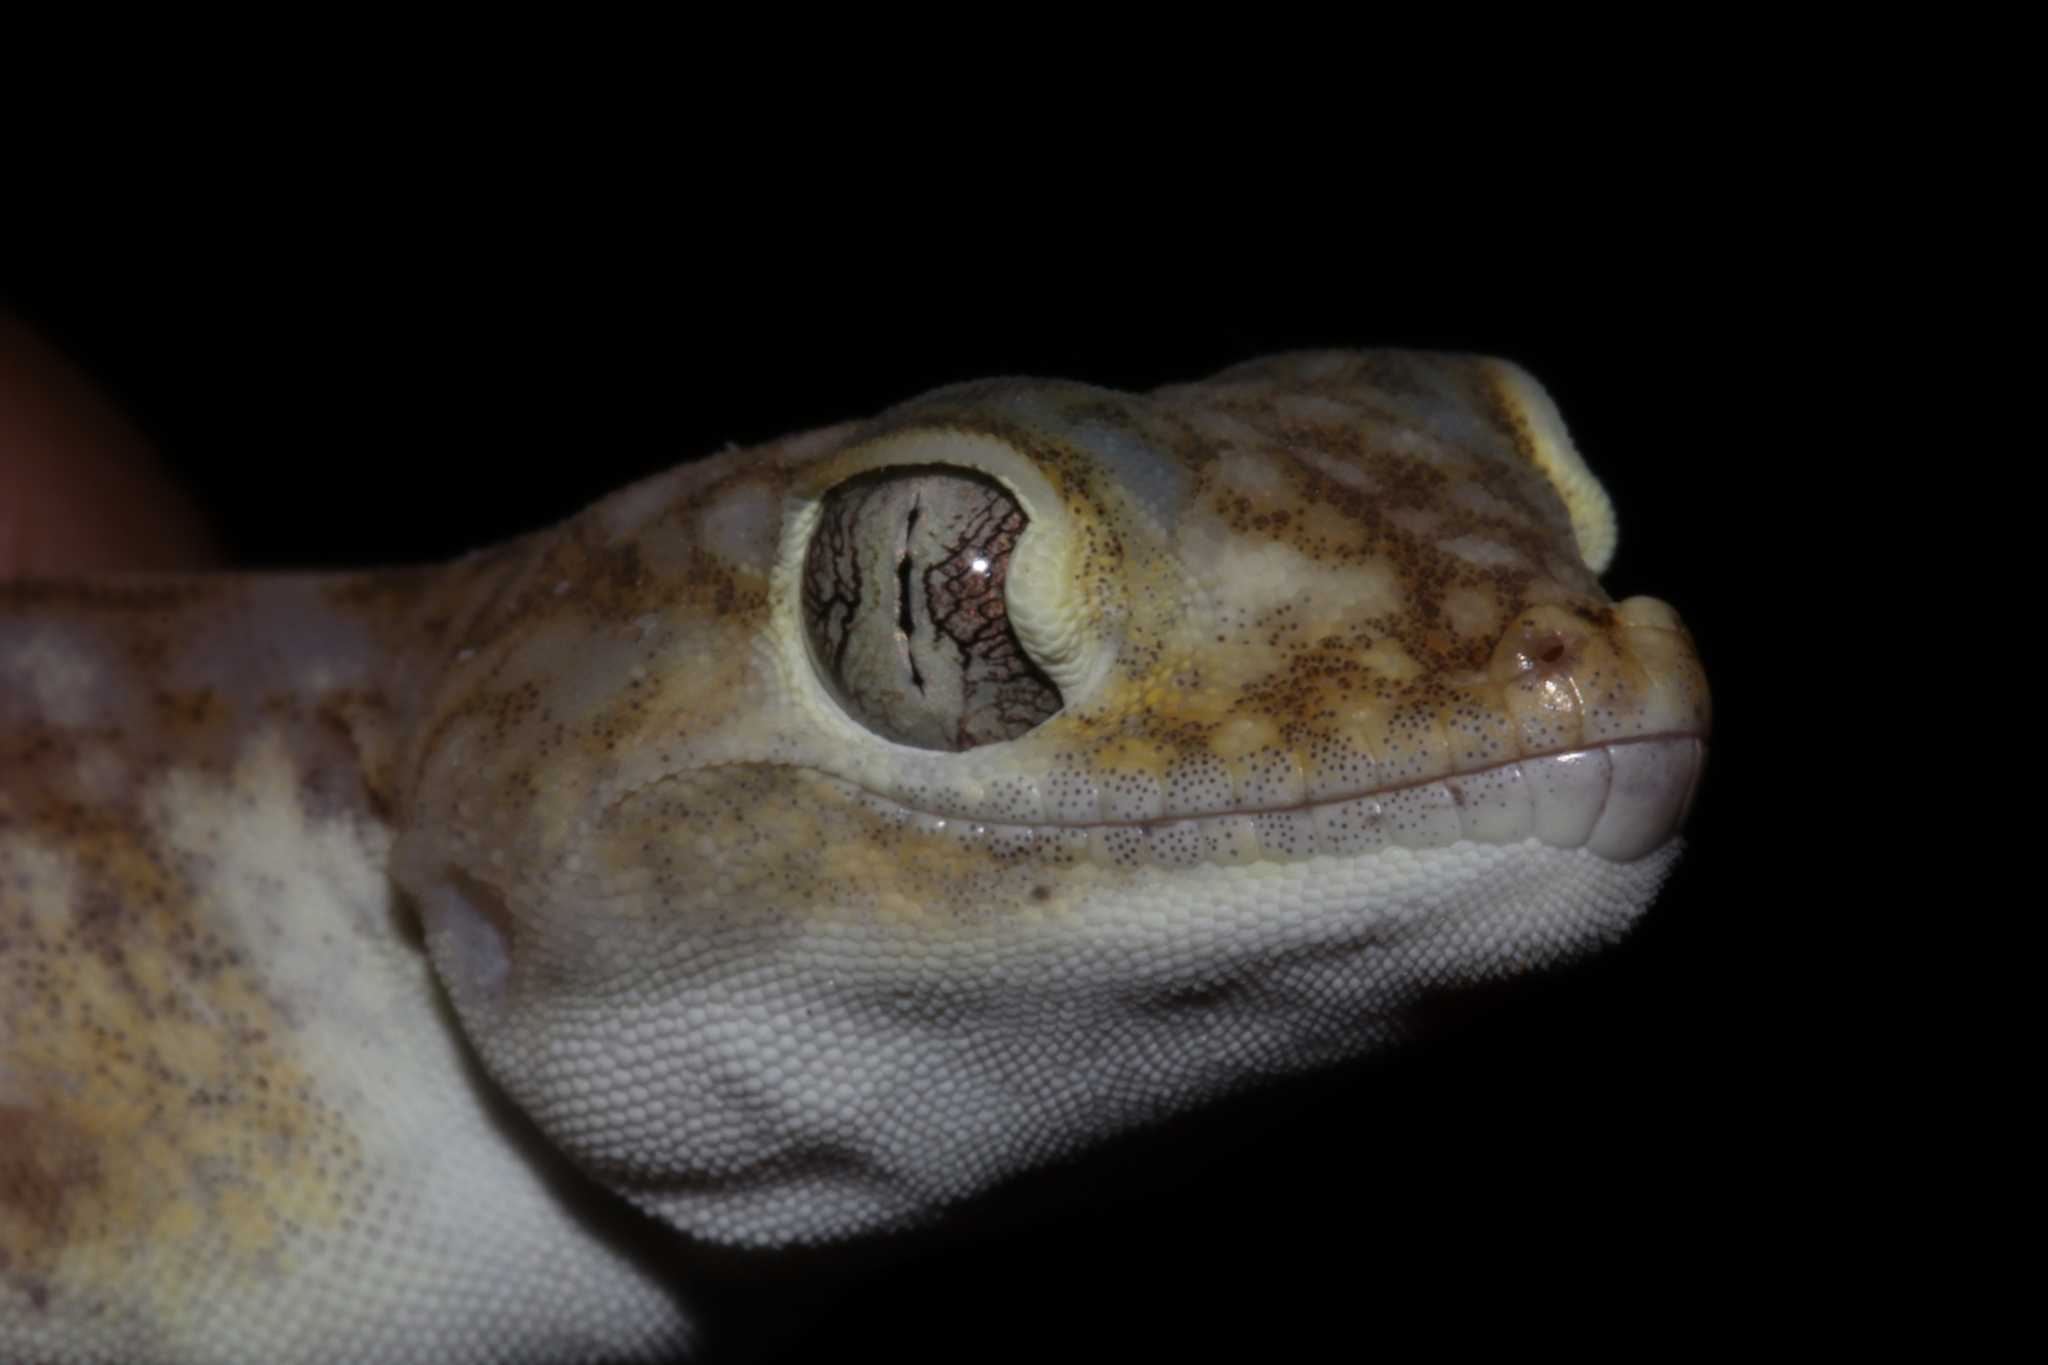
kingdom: Animalia
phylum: Chordata
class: Squamata
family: Gekkonidae
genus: Stenodactylus
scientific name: Stenodactylus doriae
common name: Dune sand gecko
